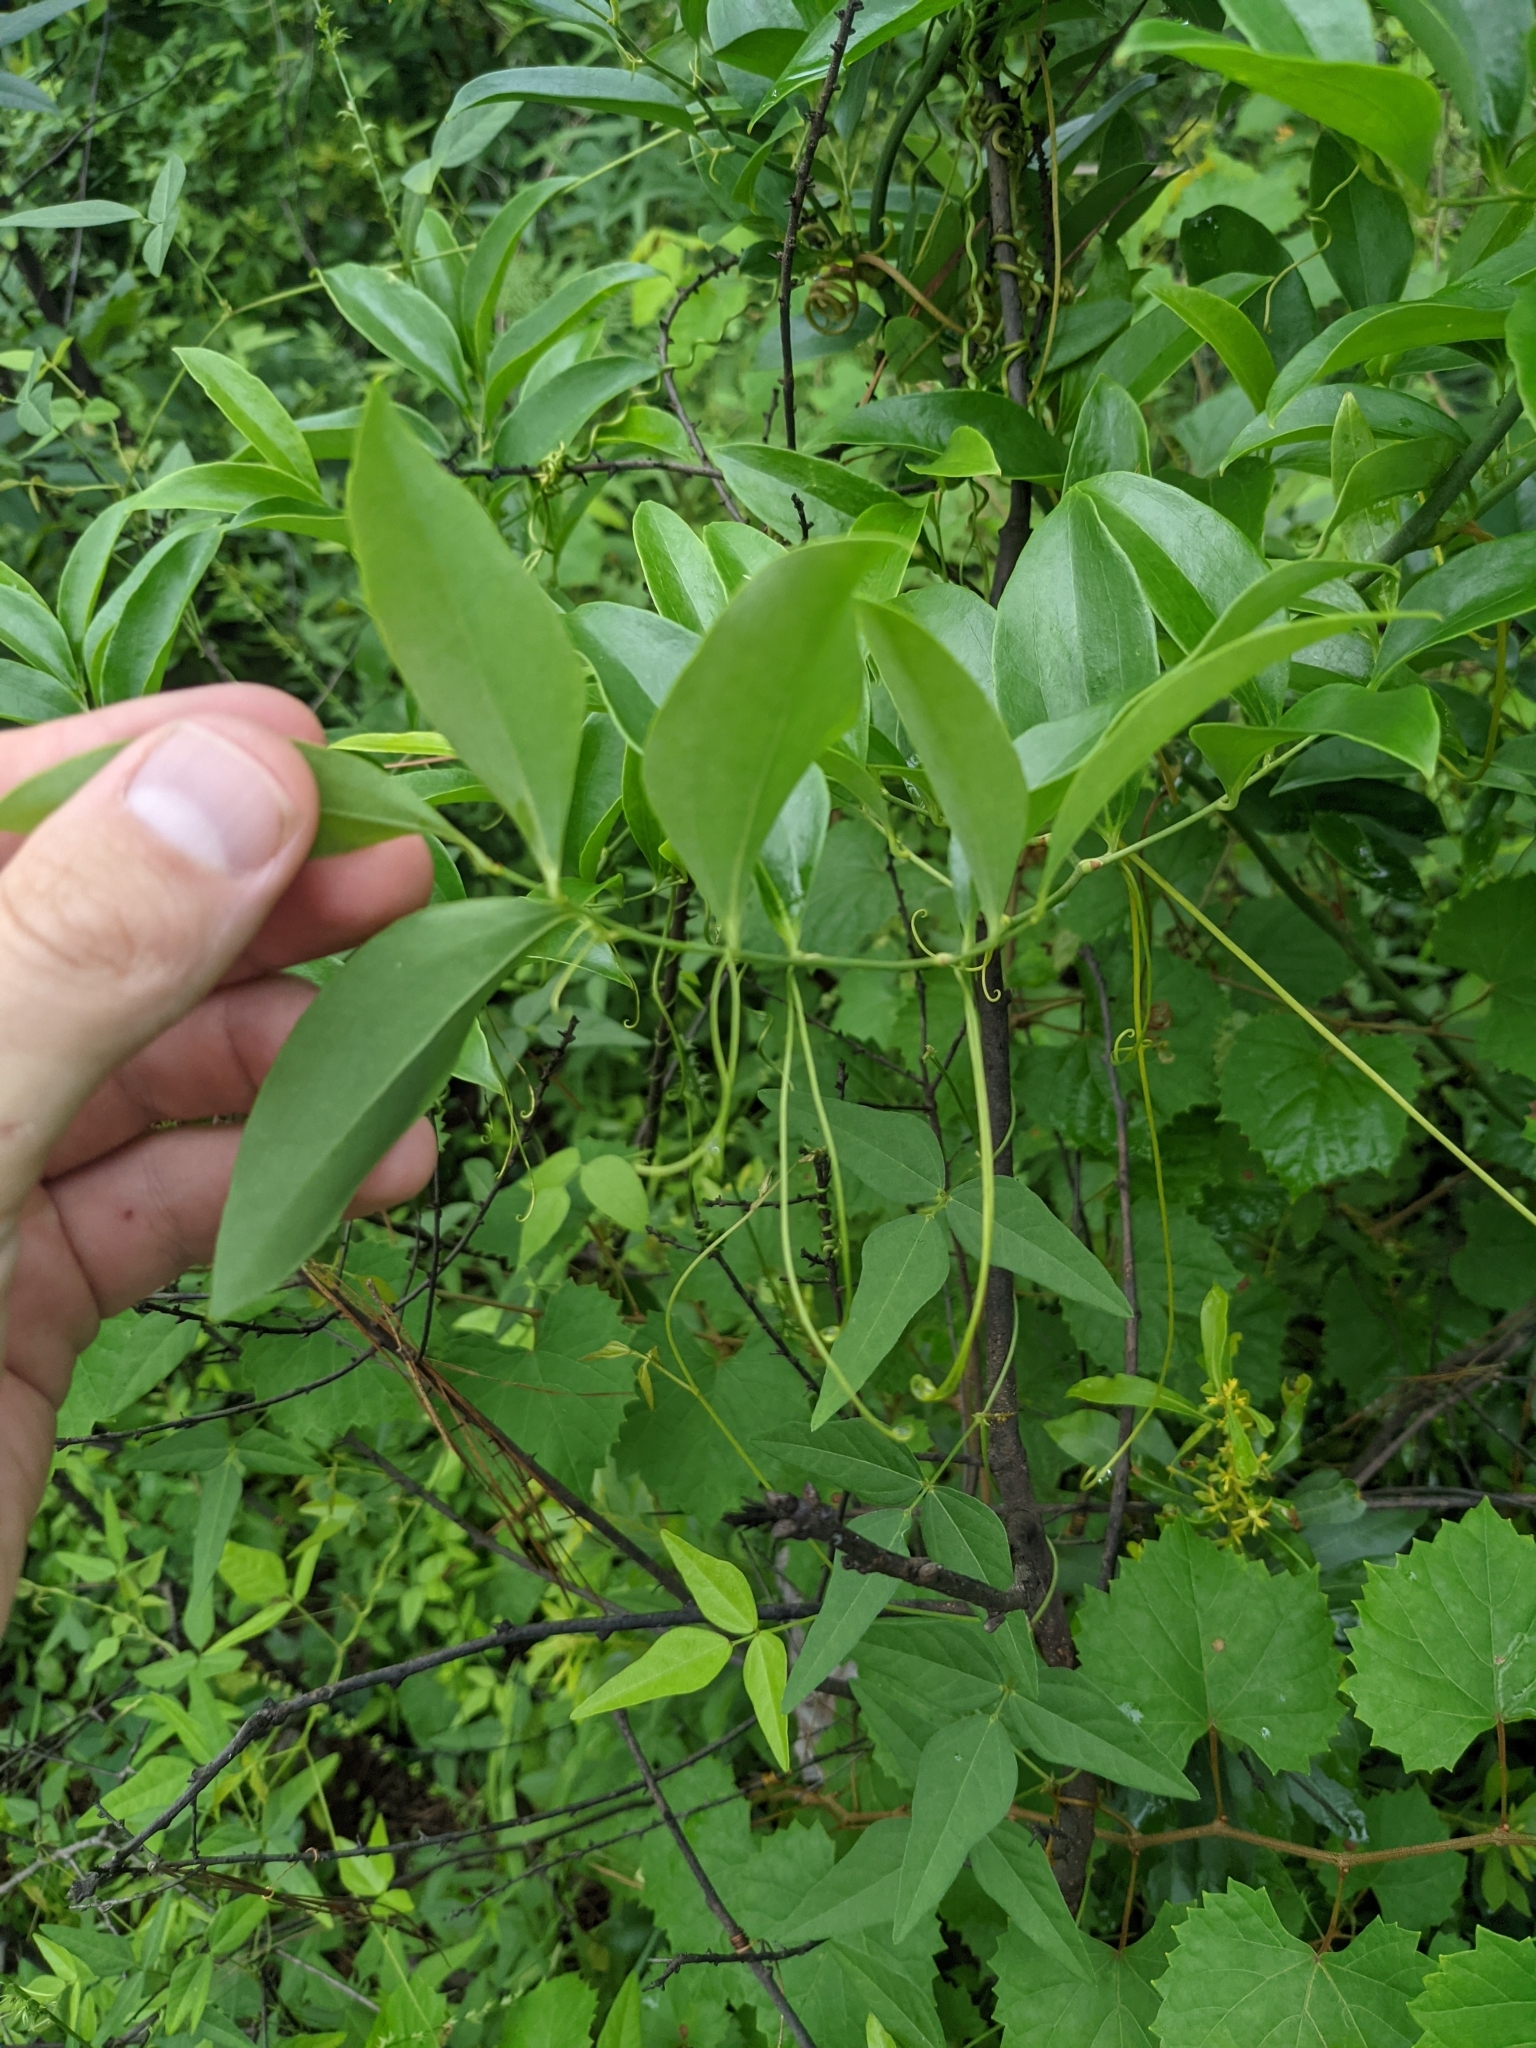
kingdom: Plantae
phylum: Tracheophyta
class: Liliopsida
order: Liliales
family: Smilacaceae
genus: Smilax
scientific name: Smilax maritima
